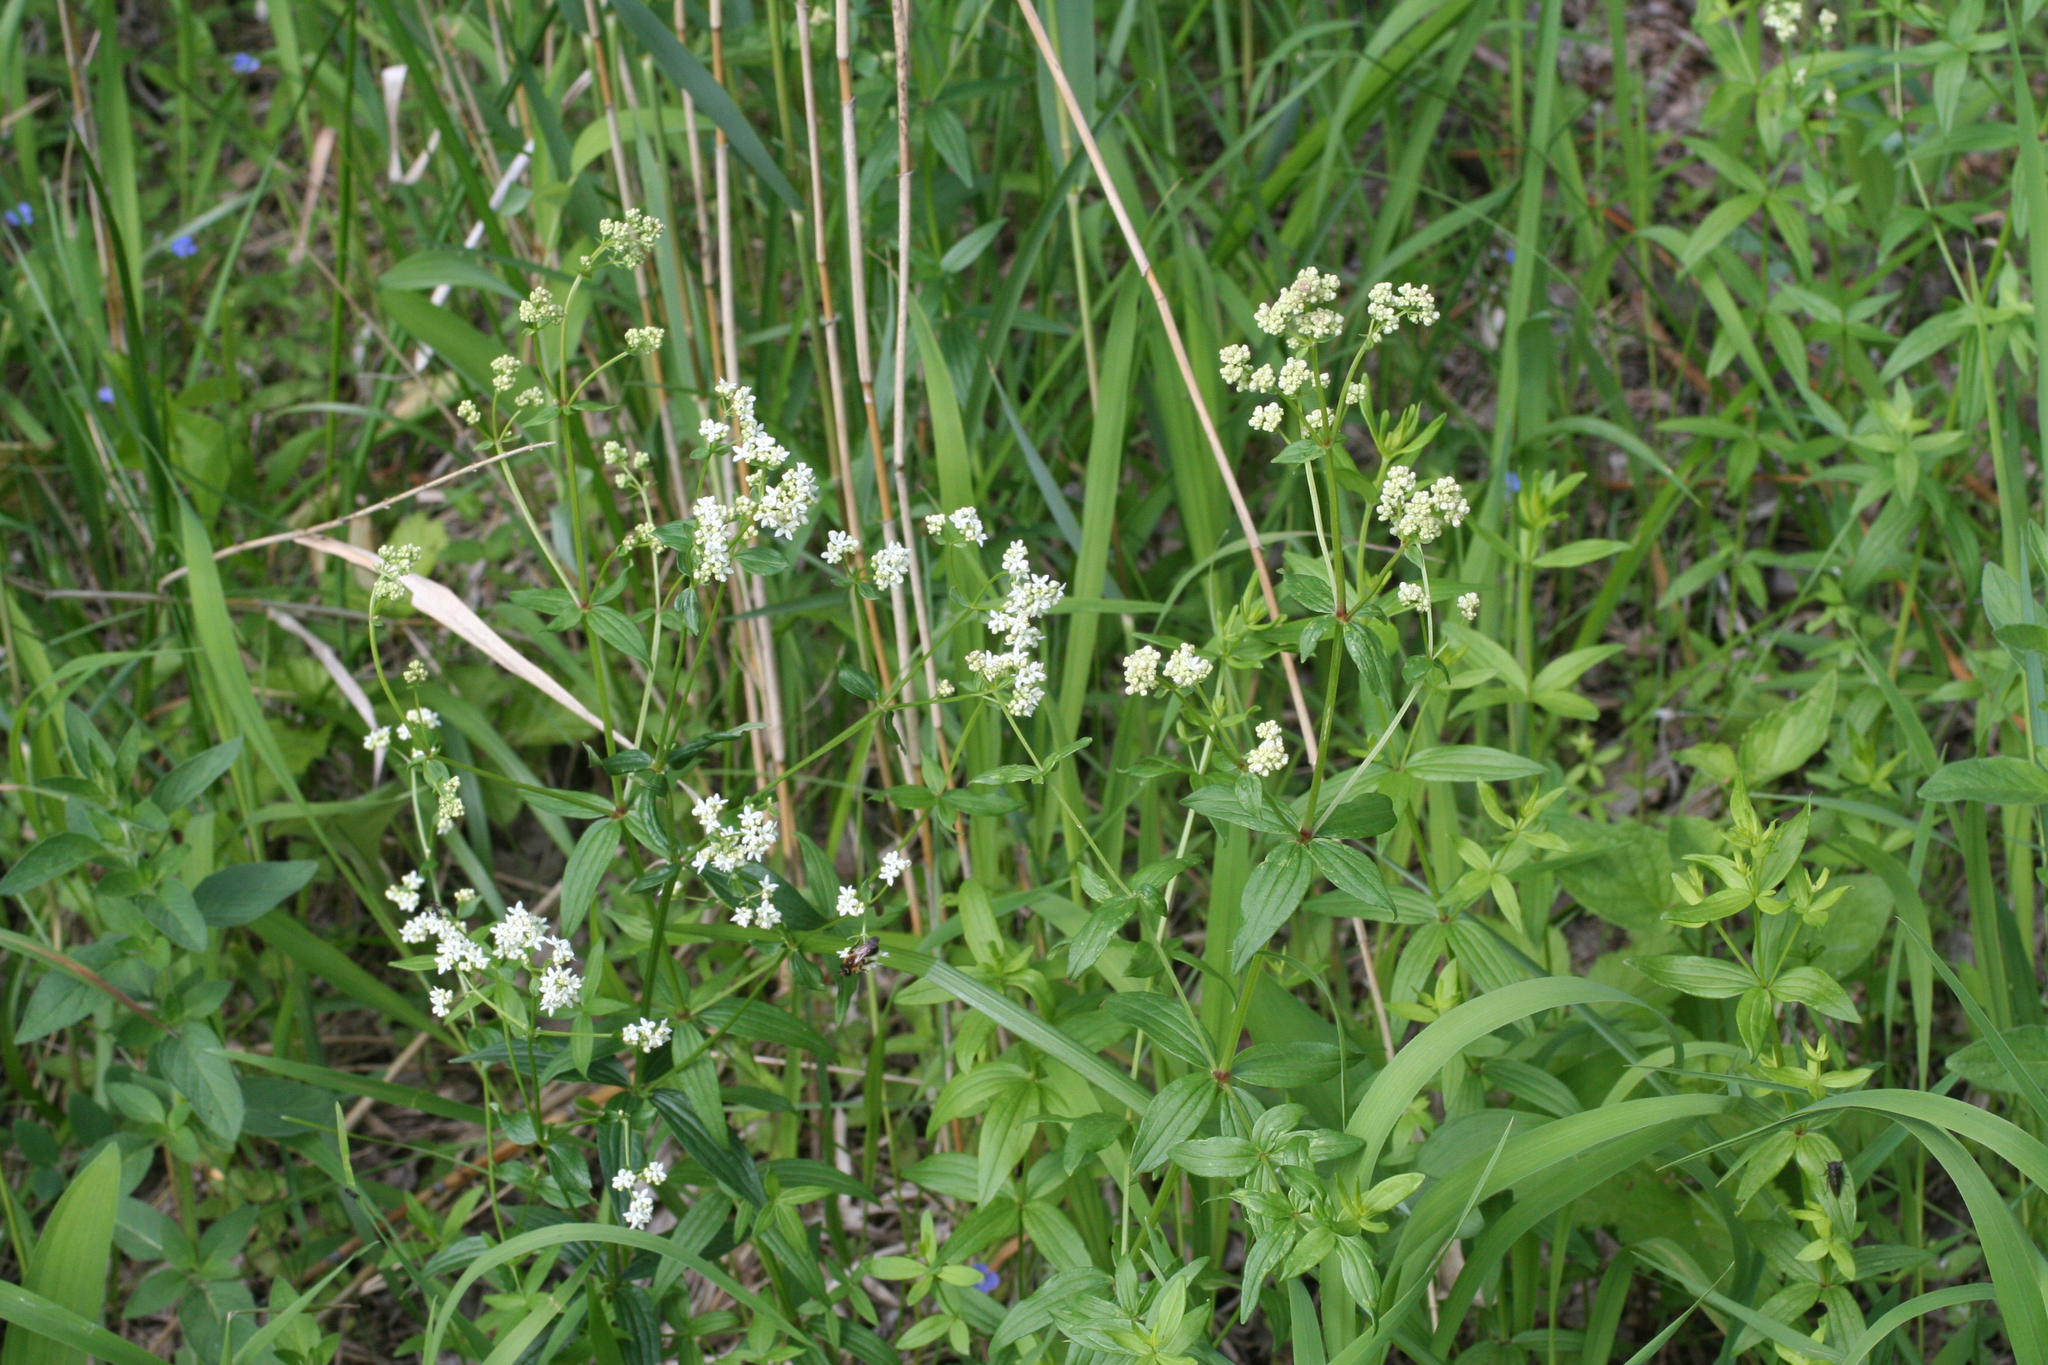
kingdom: Plantae
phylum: Tracheophyta
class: Magnoliopsida
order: Gentianales
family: Rubiaceae
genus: Galium
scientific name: Galium boreale
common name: Northern bedstraw
